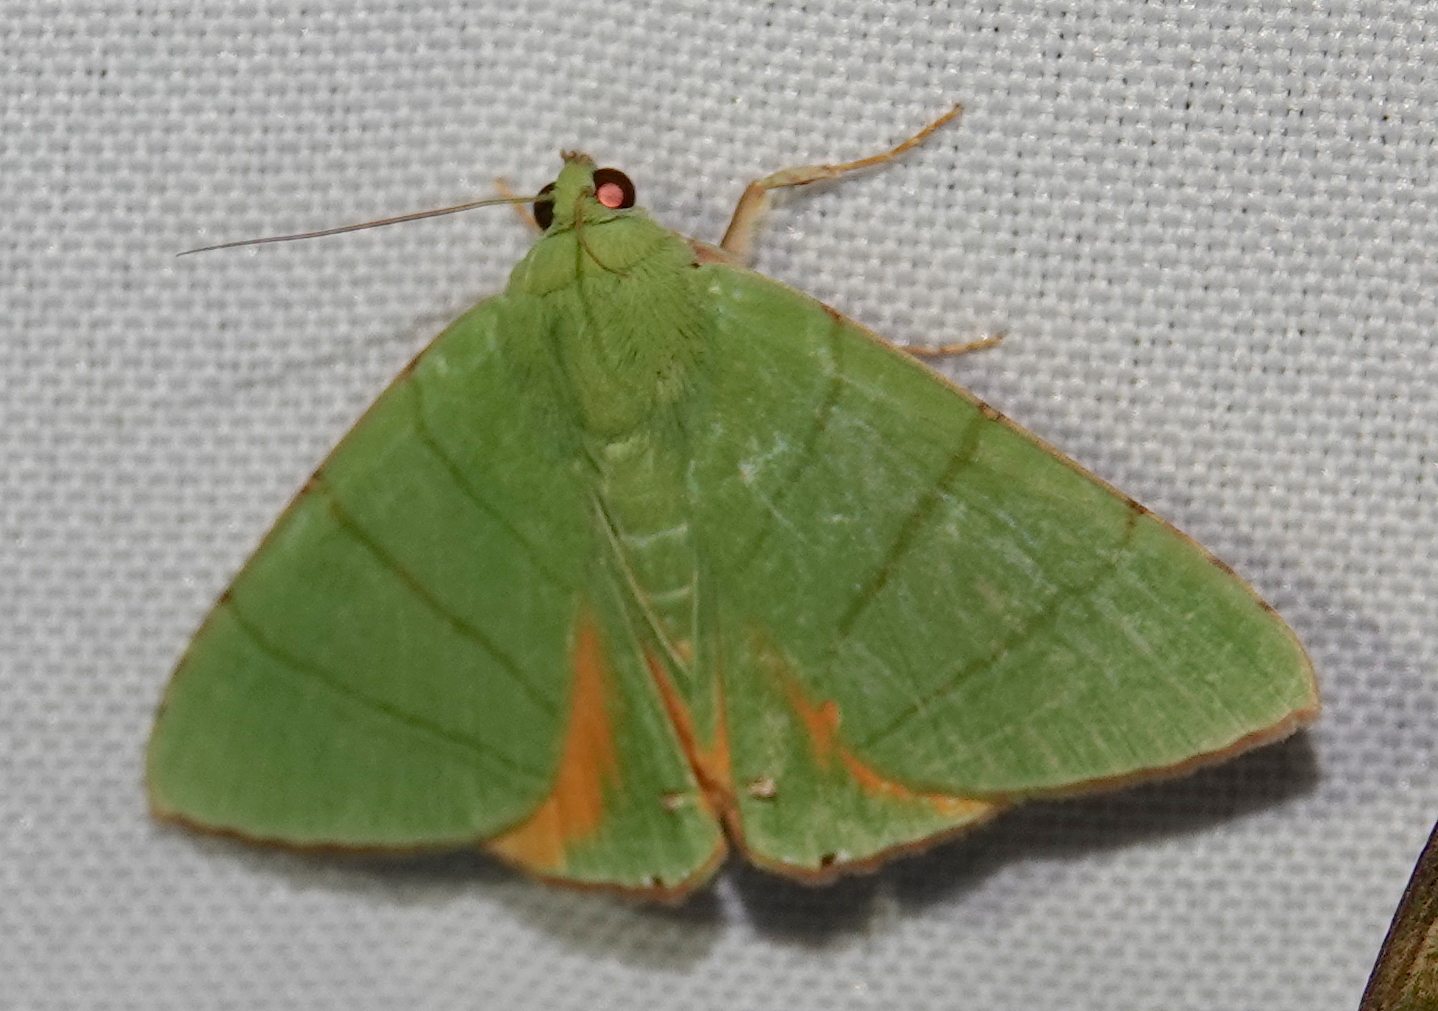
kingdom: Animalia
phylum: Arthropoda
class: Insecta
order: Lepidoptera
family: Erebidae
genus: Eulepidotis
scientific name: Eulepidotis croceipars
